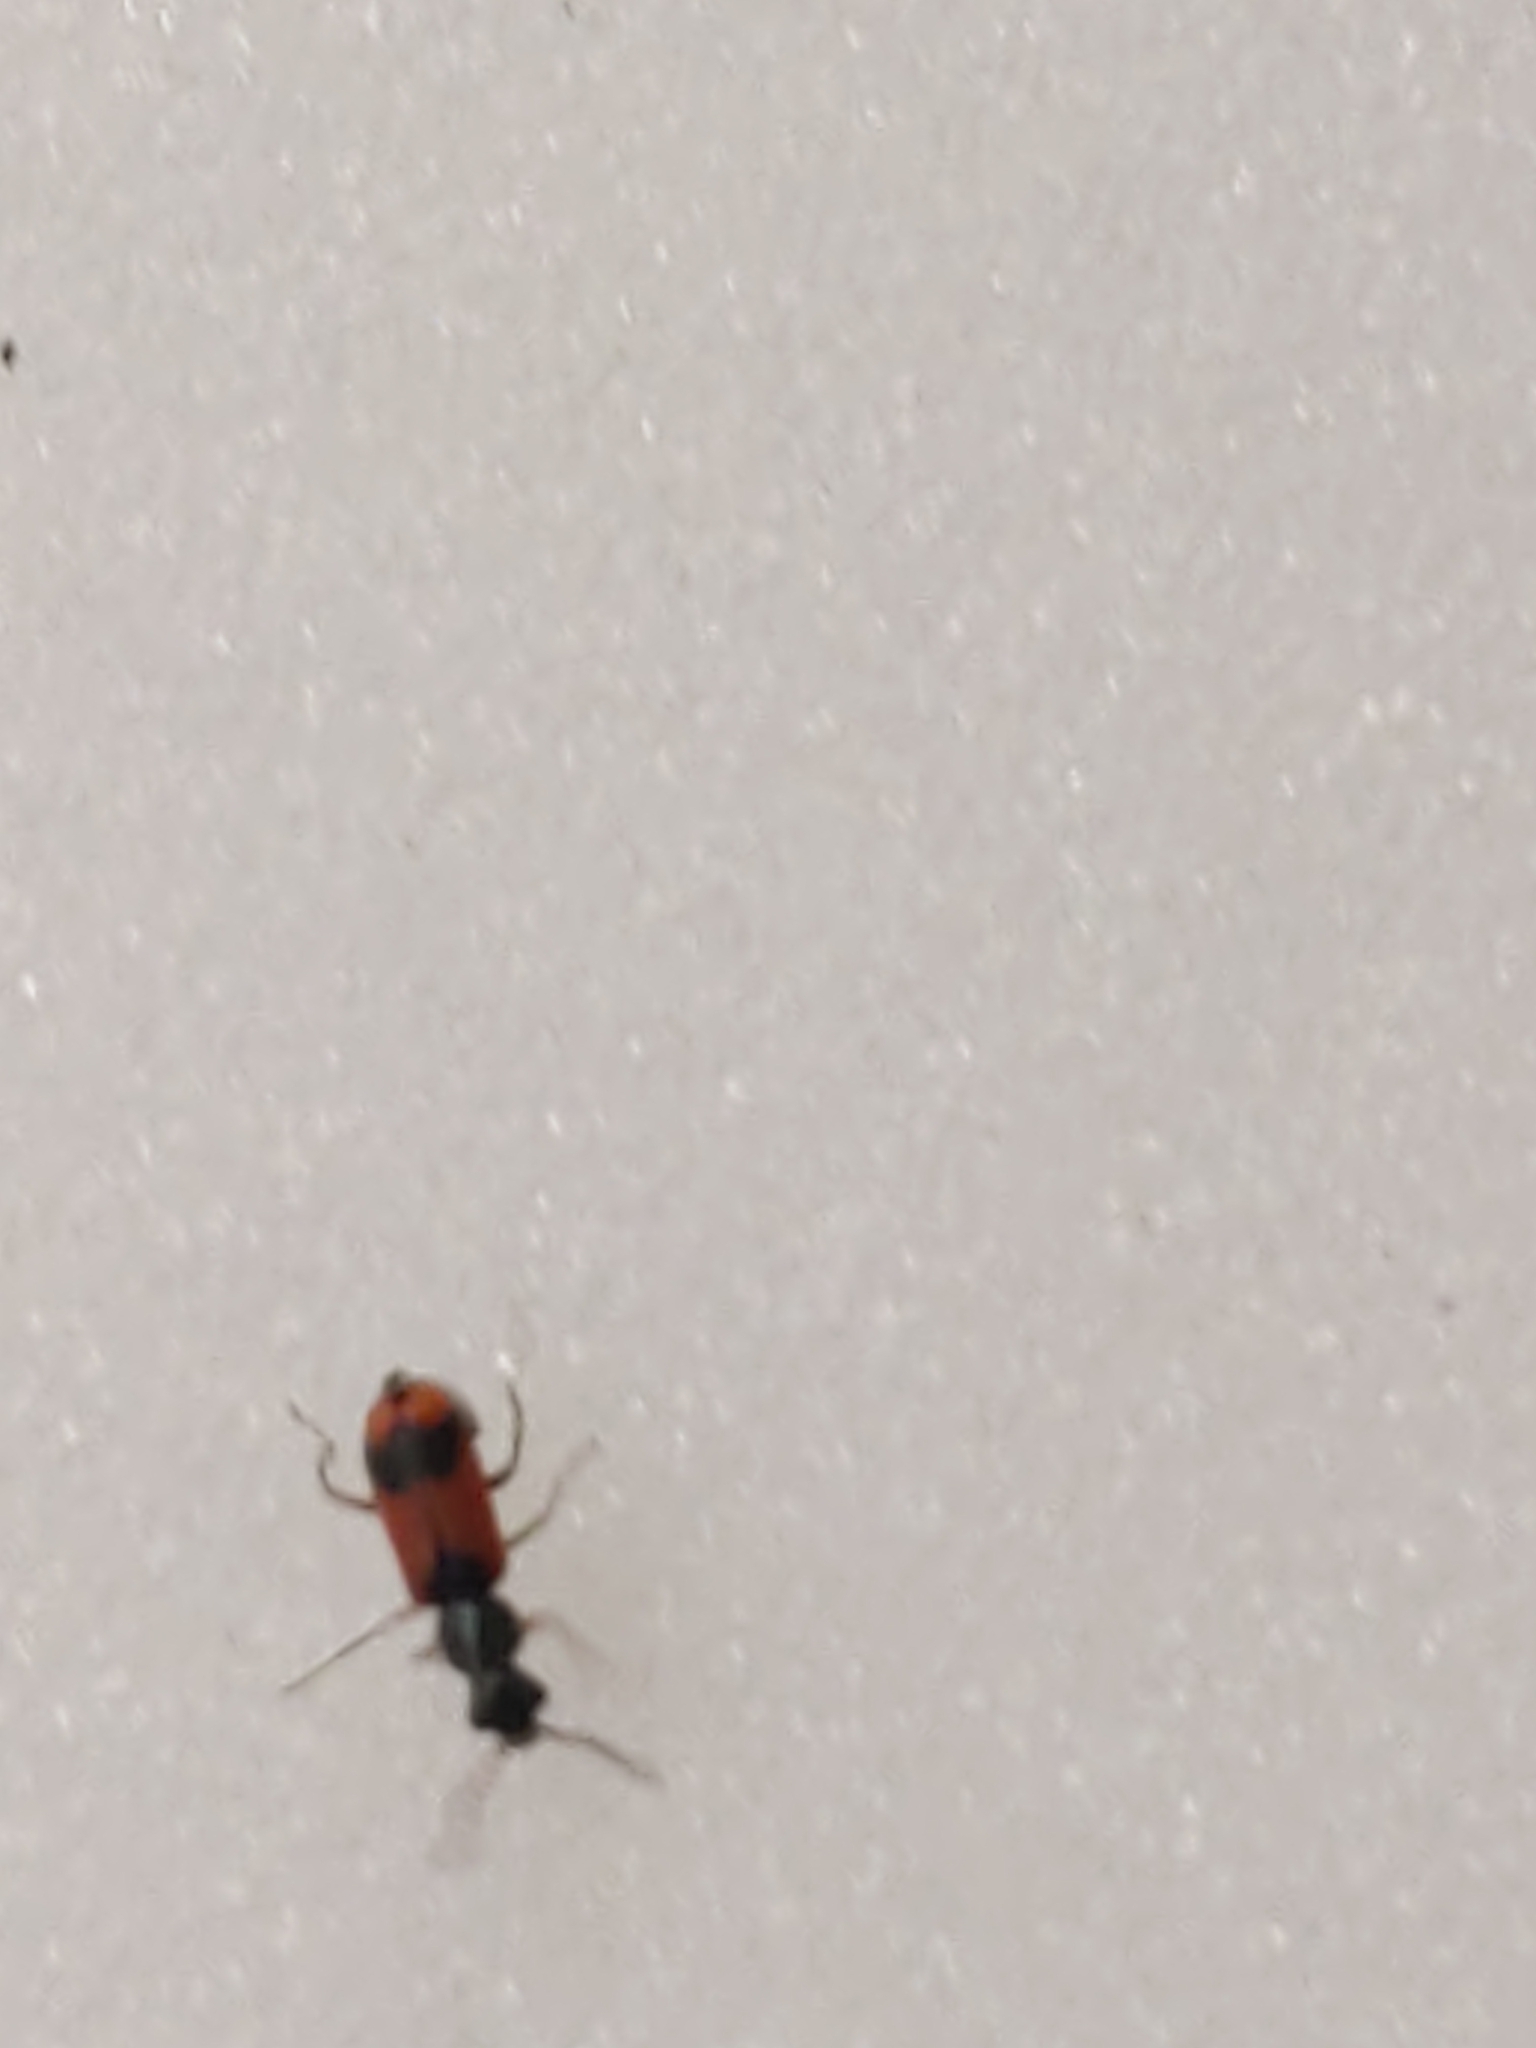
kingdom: Animalia
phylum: Arthropoda
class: Insecta
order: Coleoptera
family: Melyridae
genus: Anthocomus
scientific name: Anthocomus equestris
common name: Black-banded soft-winged flower beetle
